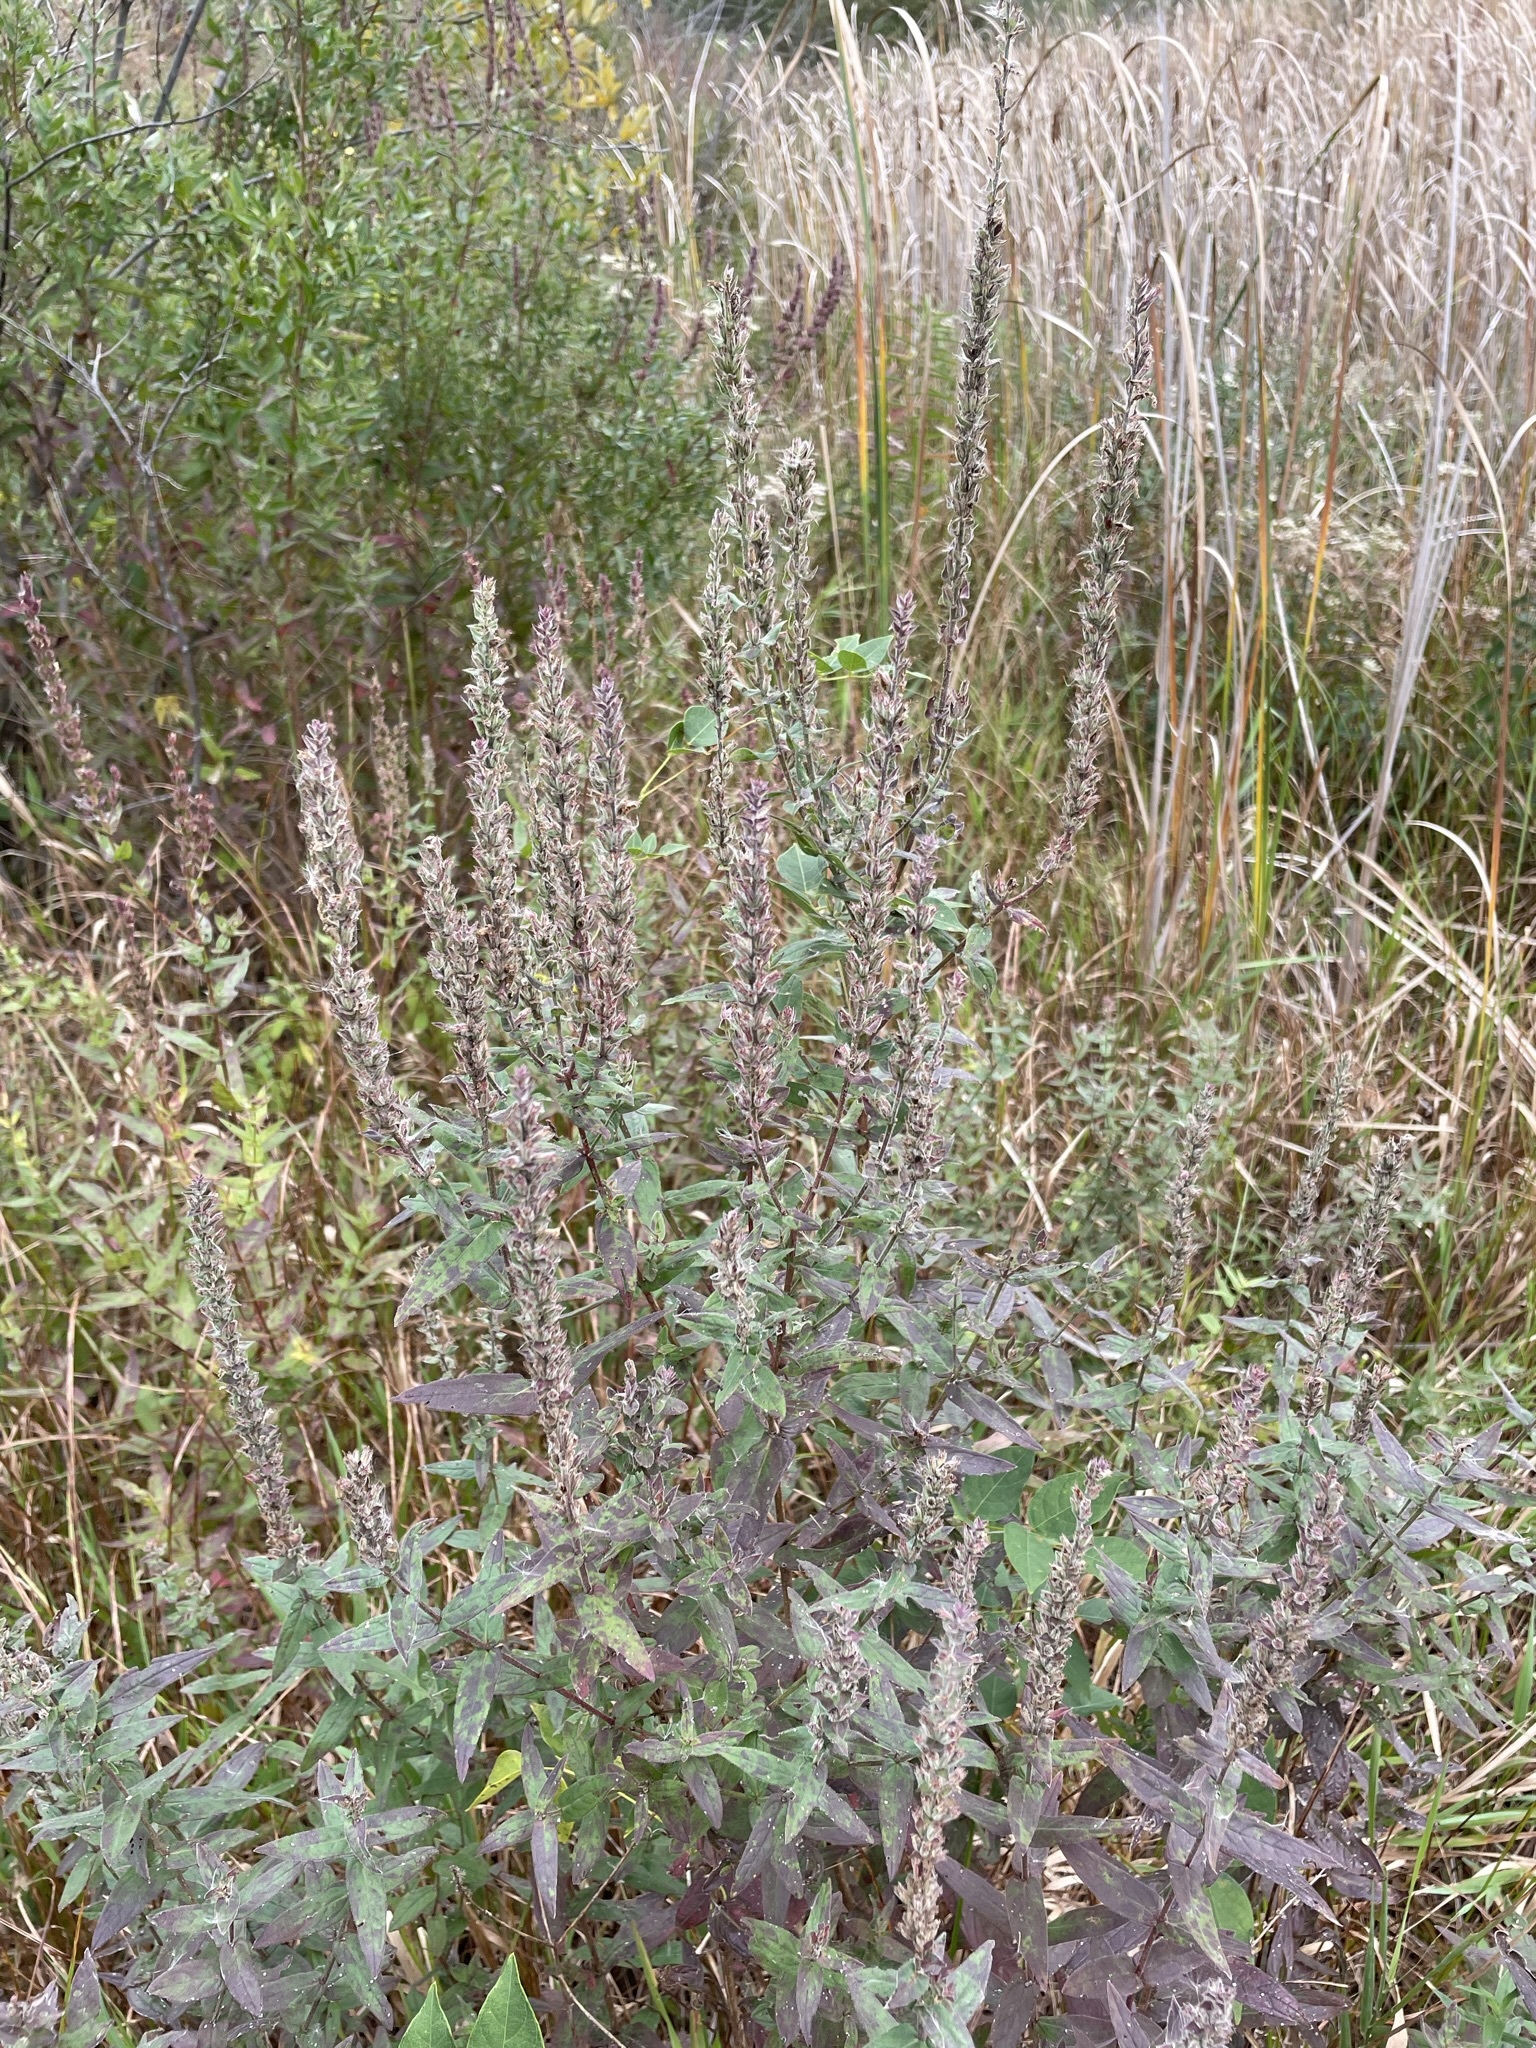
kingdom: Plantae
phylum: Tracheophyta
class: Magnoliopsida
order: Myrtales
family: Lythraceae
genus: Lythrum
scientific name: Lythrum salicaria
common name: Purple loosestrife
